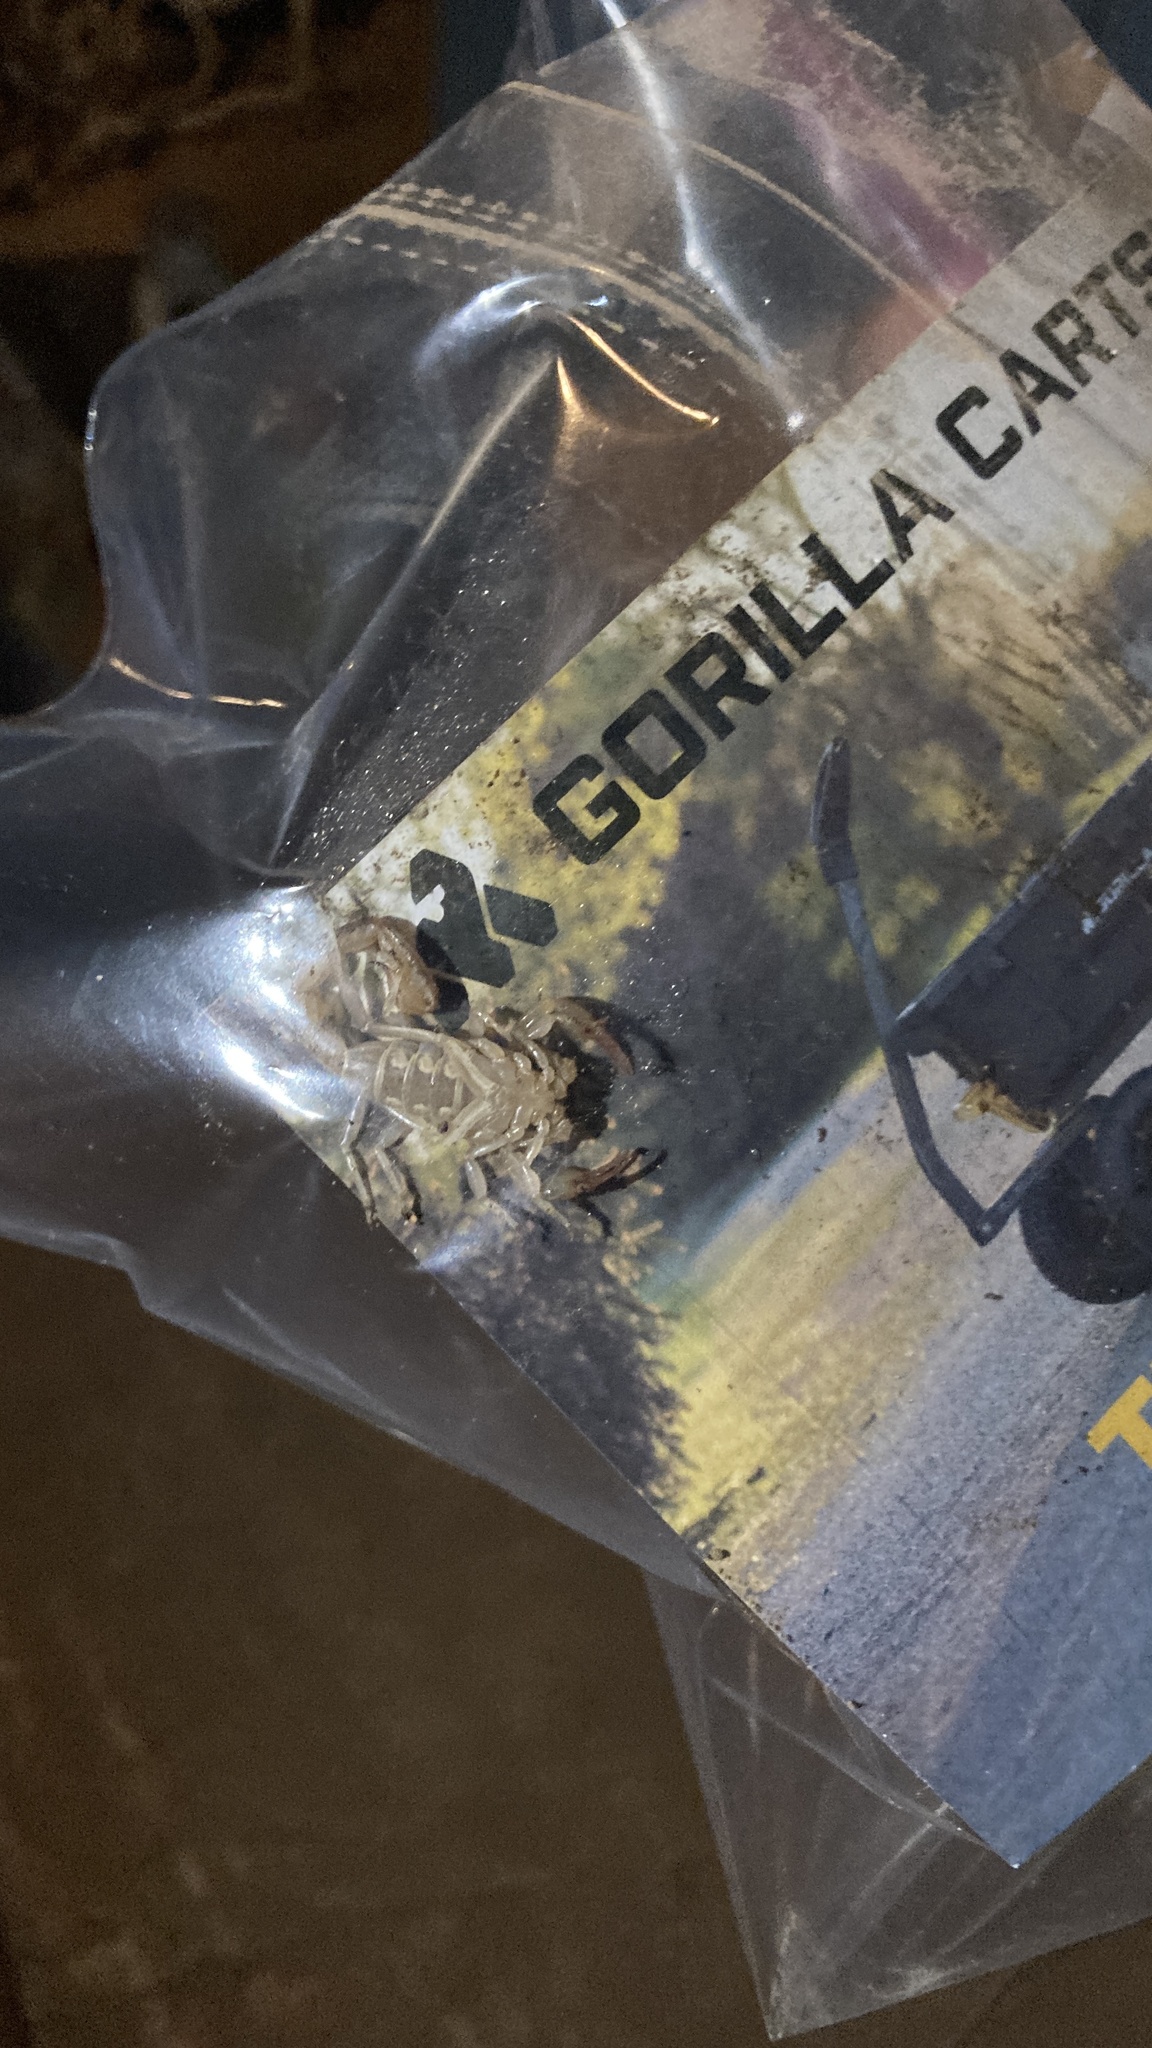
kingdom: Animalia
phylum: Arthropoda
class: Arachnida
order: Scorpiones
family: Vaejovidae
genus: Paruroctonus
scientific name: Paruroctonus silvestrii
